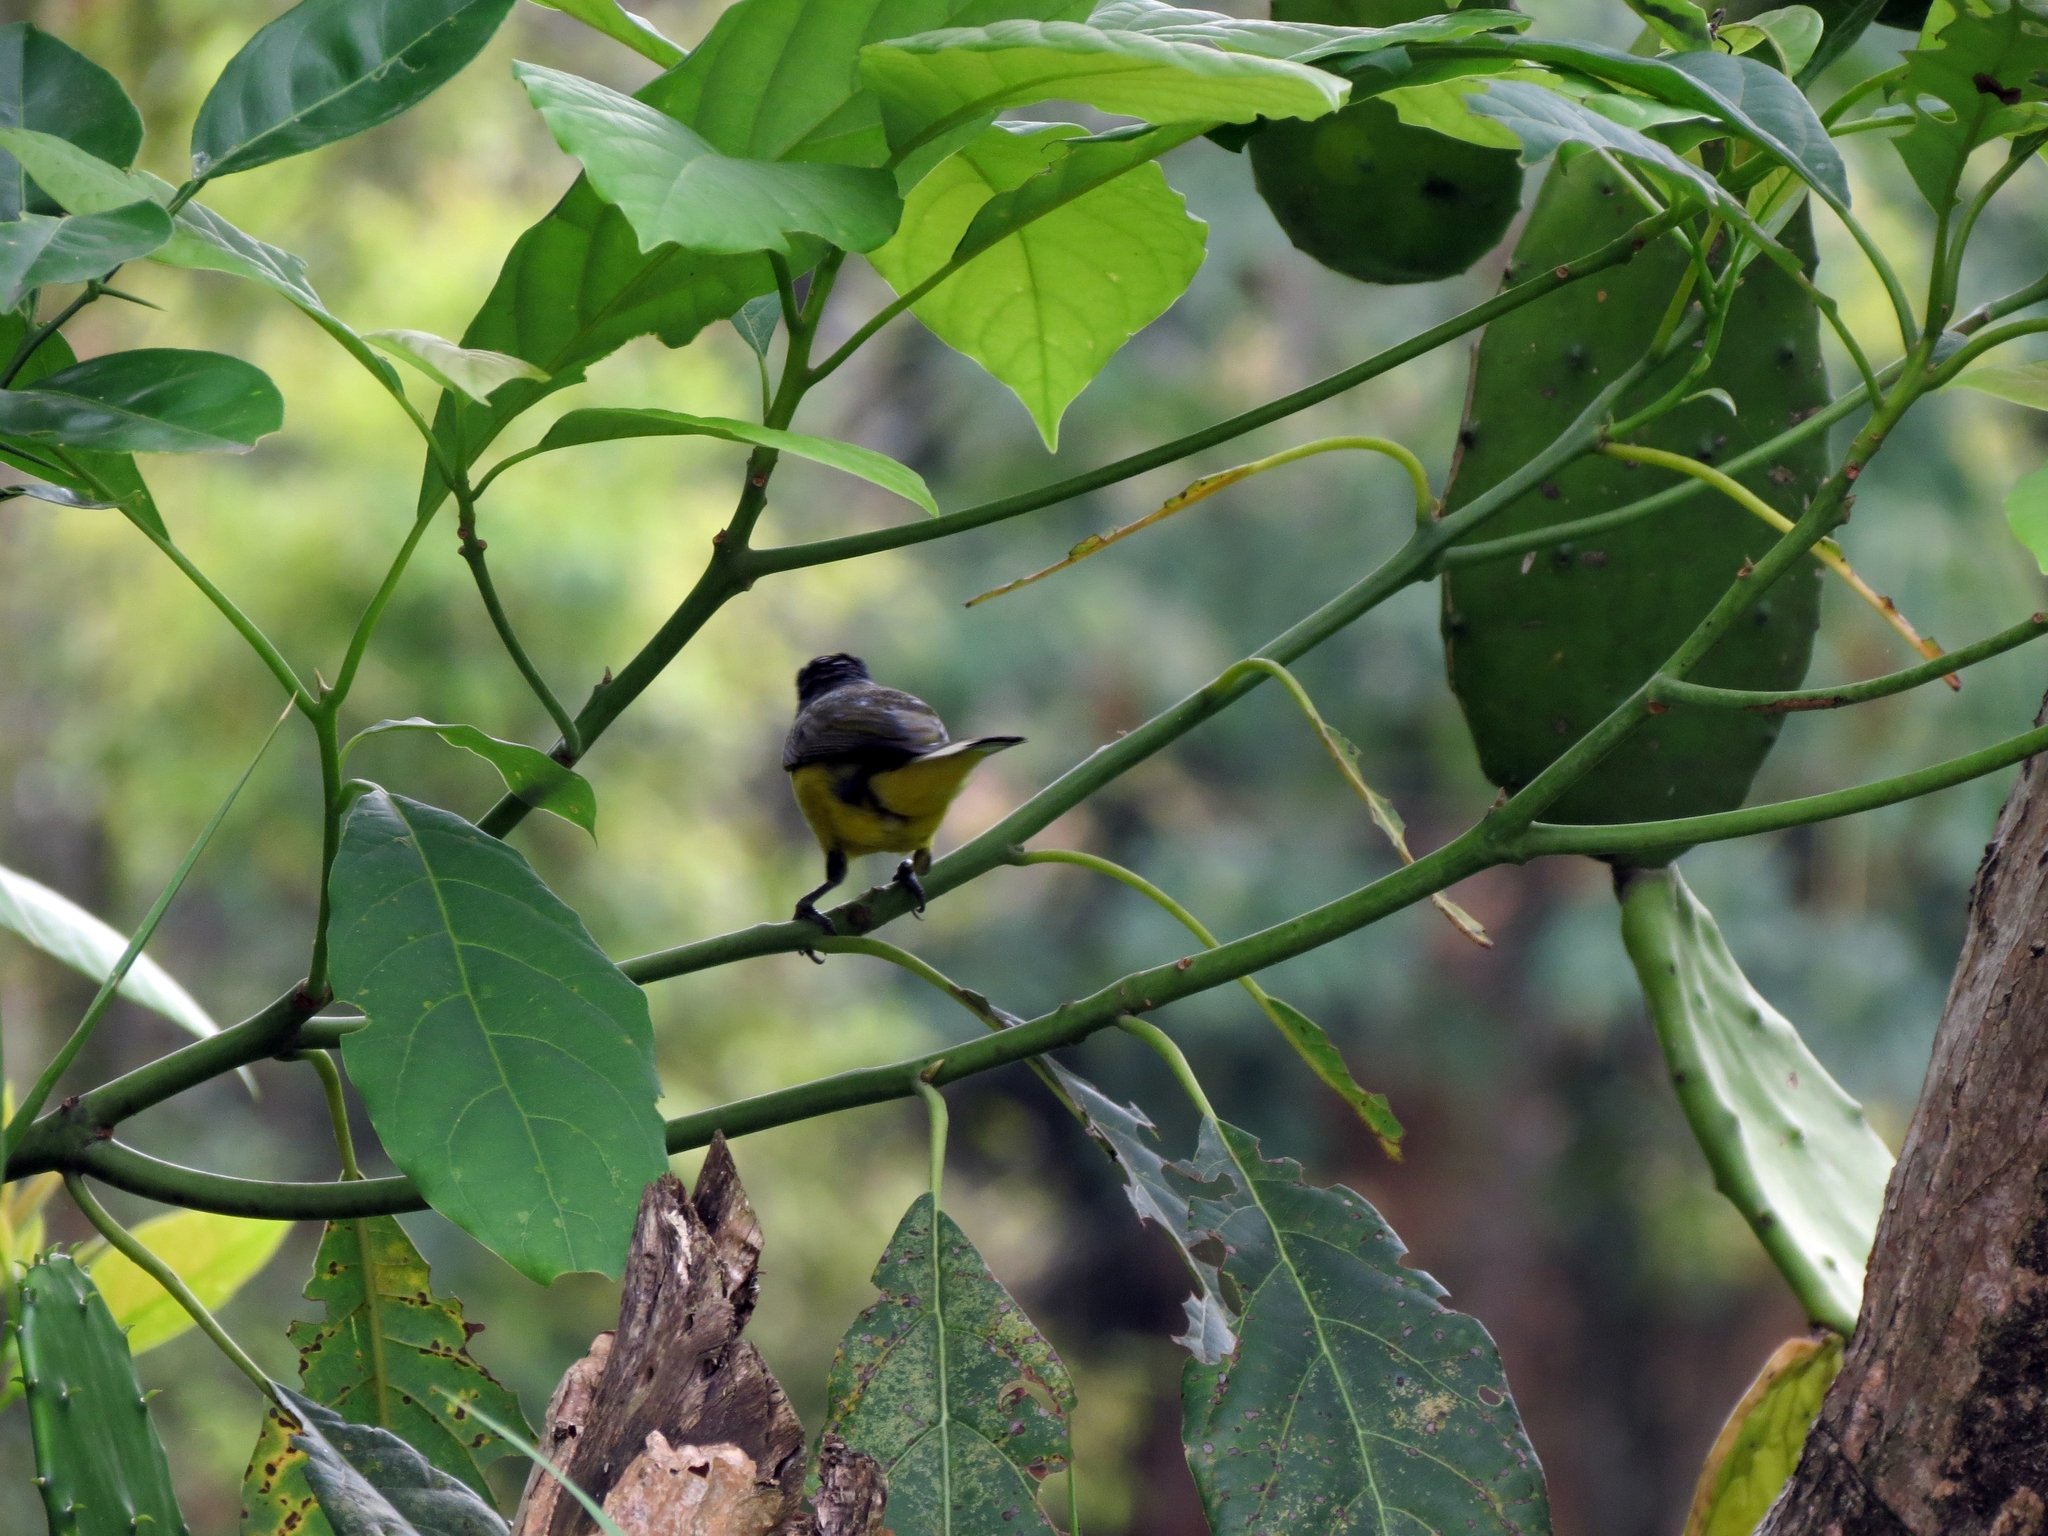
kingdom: Animalia
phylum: Chordata
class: Aves
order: Passeriformes
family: Fringillidae
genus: Euphonia
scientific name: Euphonia laniirostris
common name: Thick-billed euphonia
